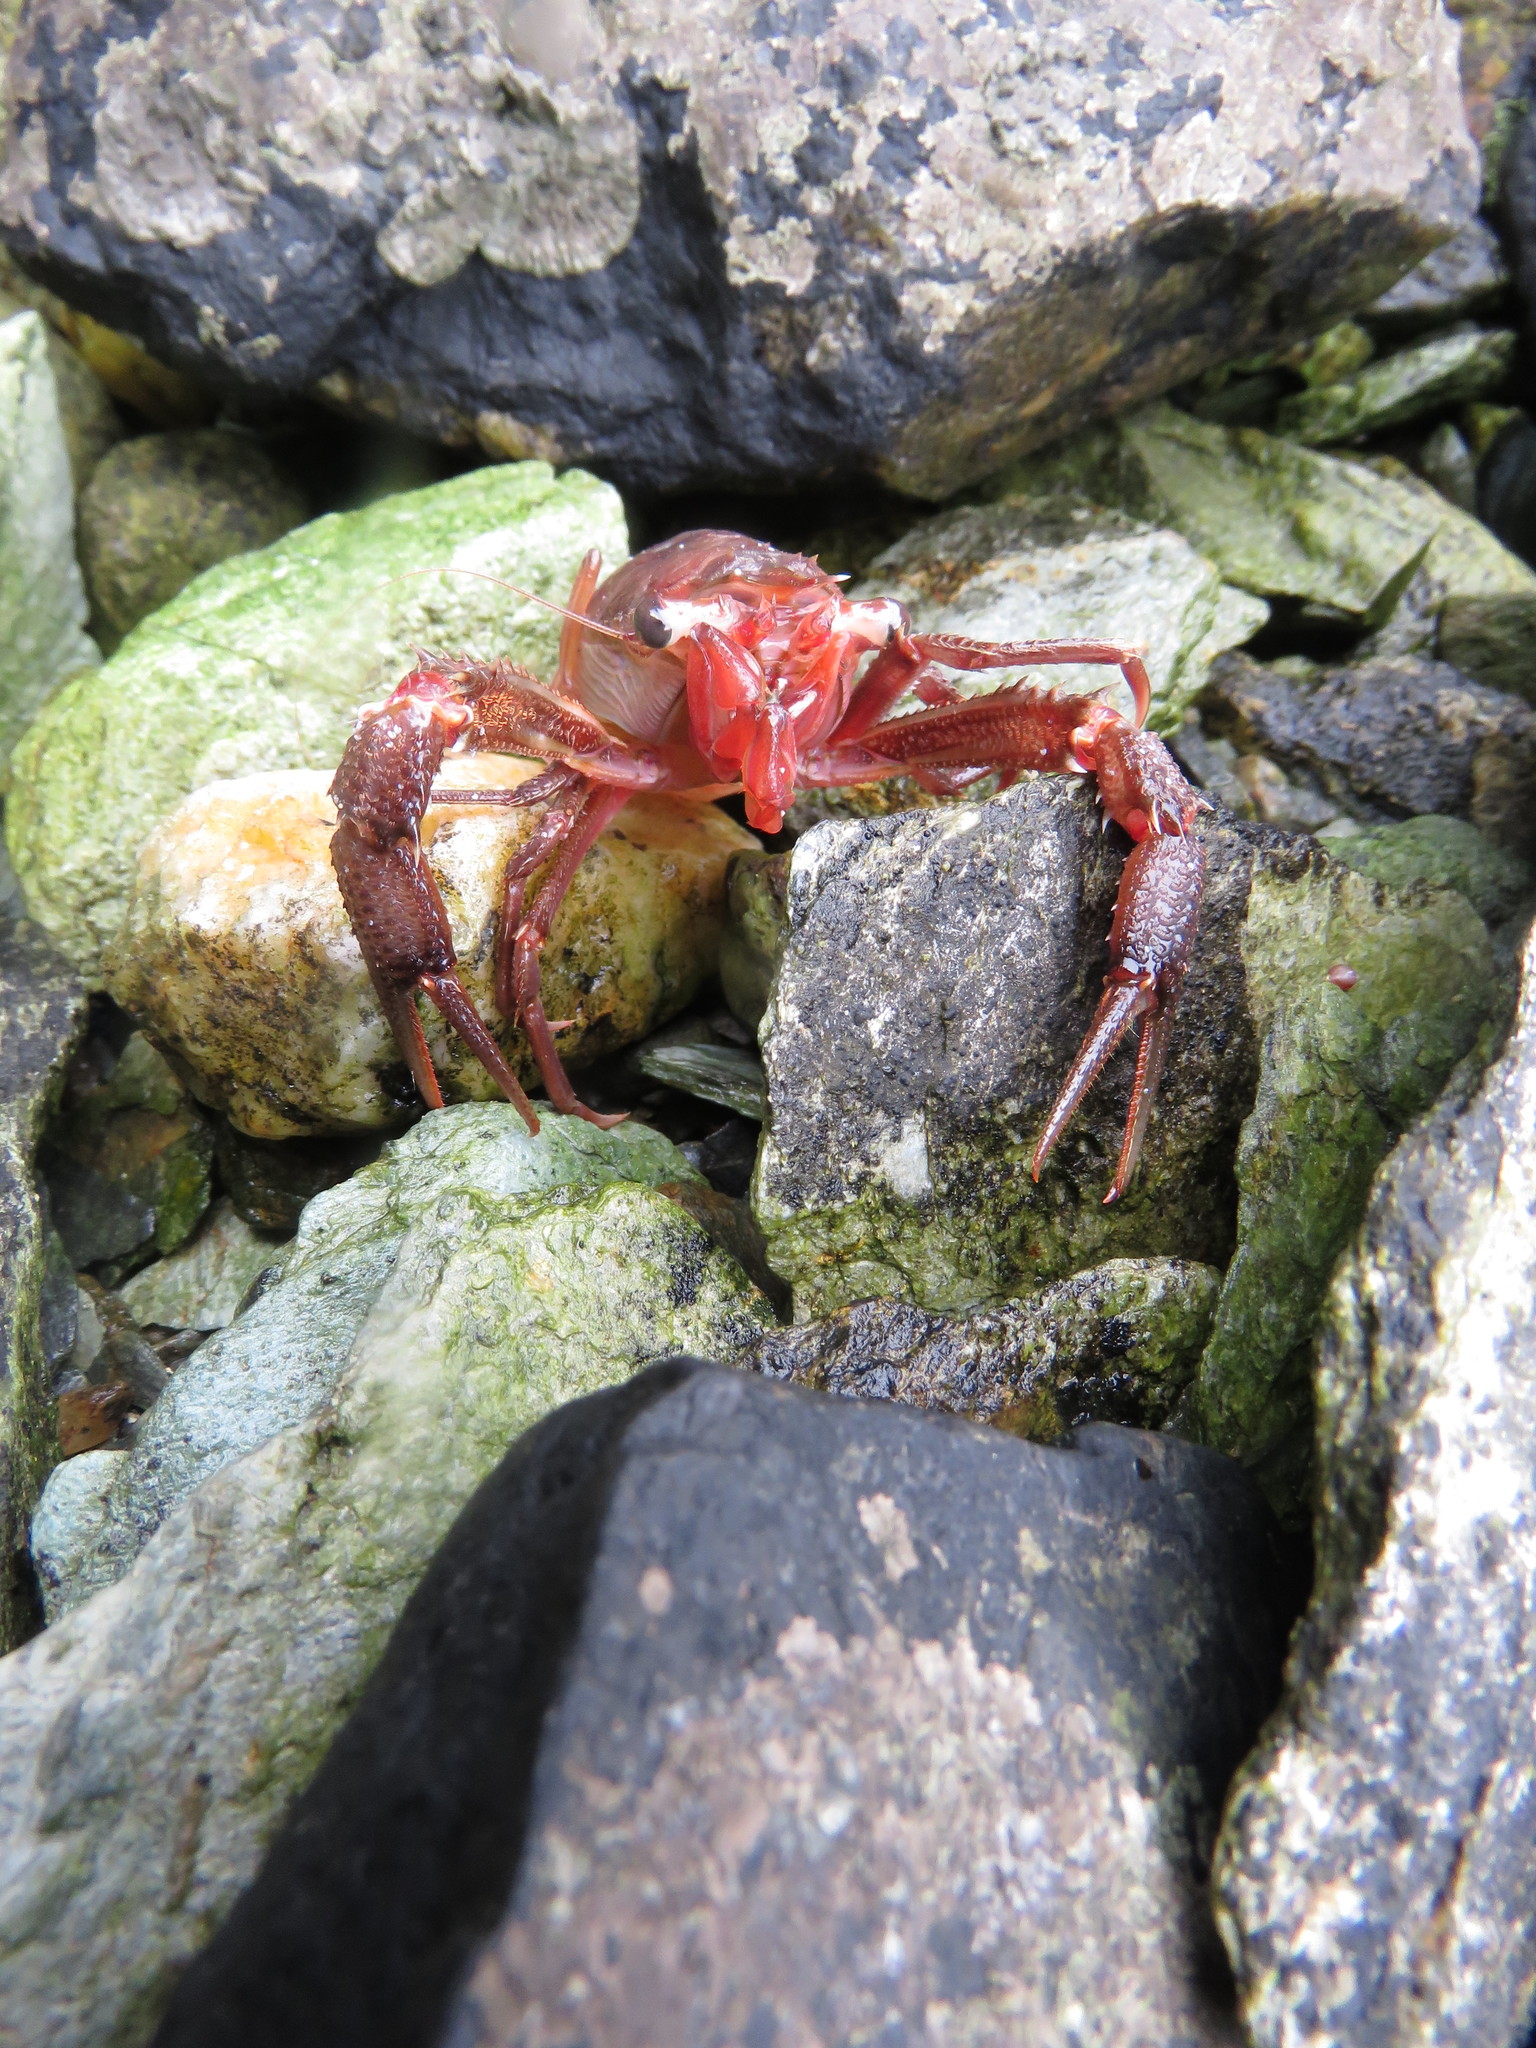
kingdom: Animalia
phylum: Arthropoda
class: Malacostraca
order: Decapoda
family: Munididae
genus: Grimothea
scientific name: Grimothea gregaria
